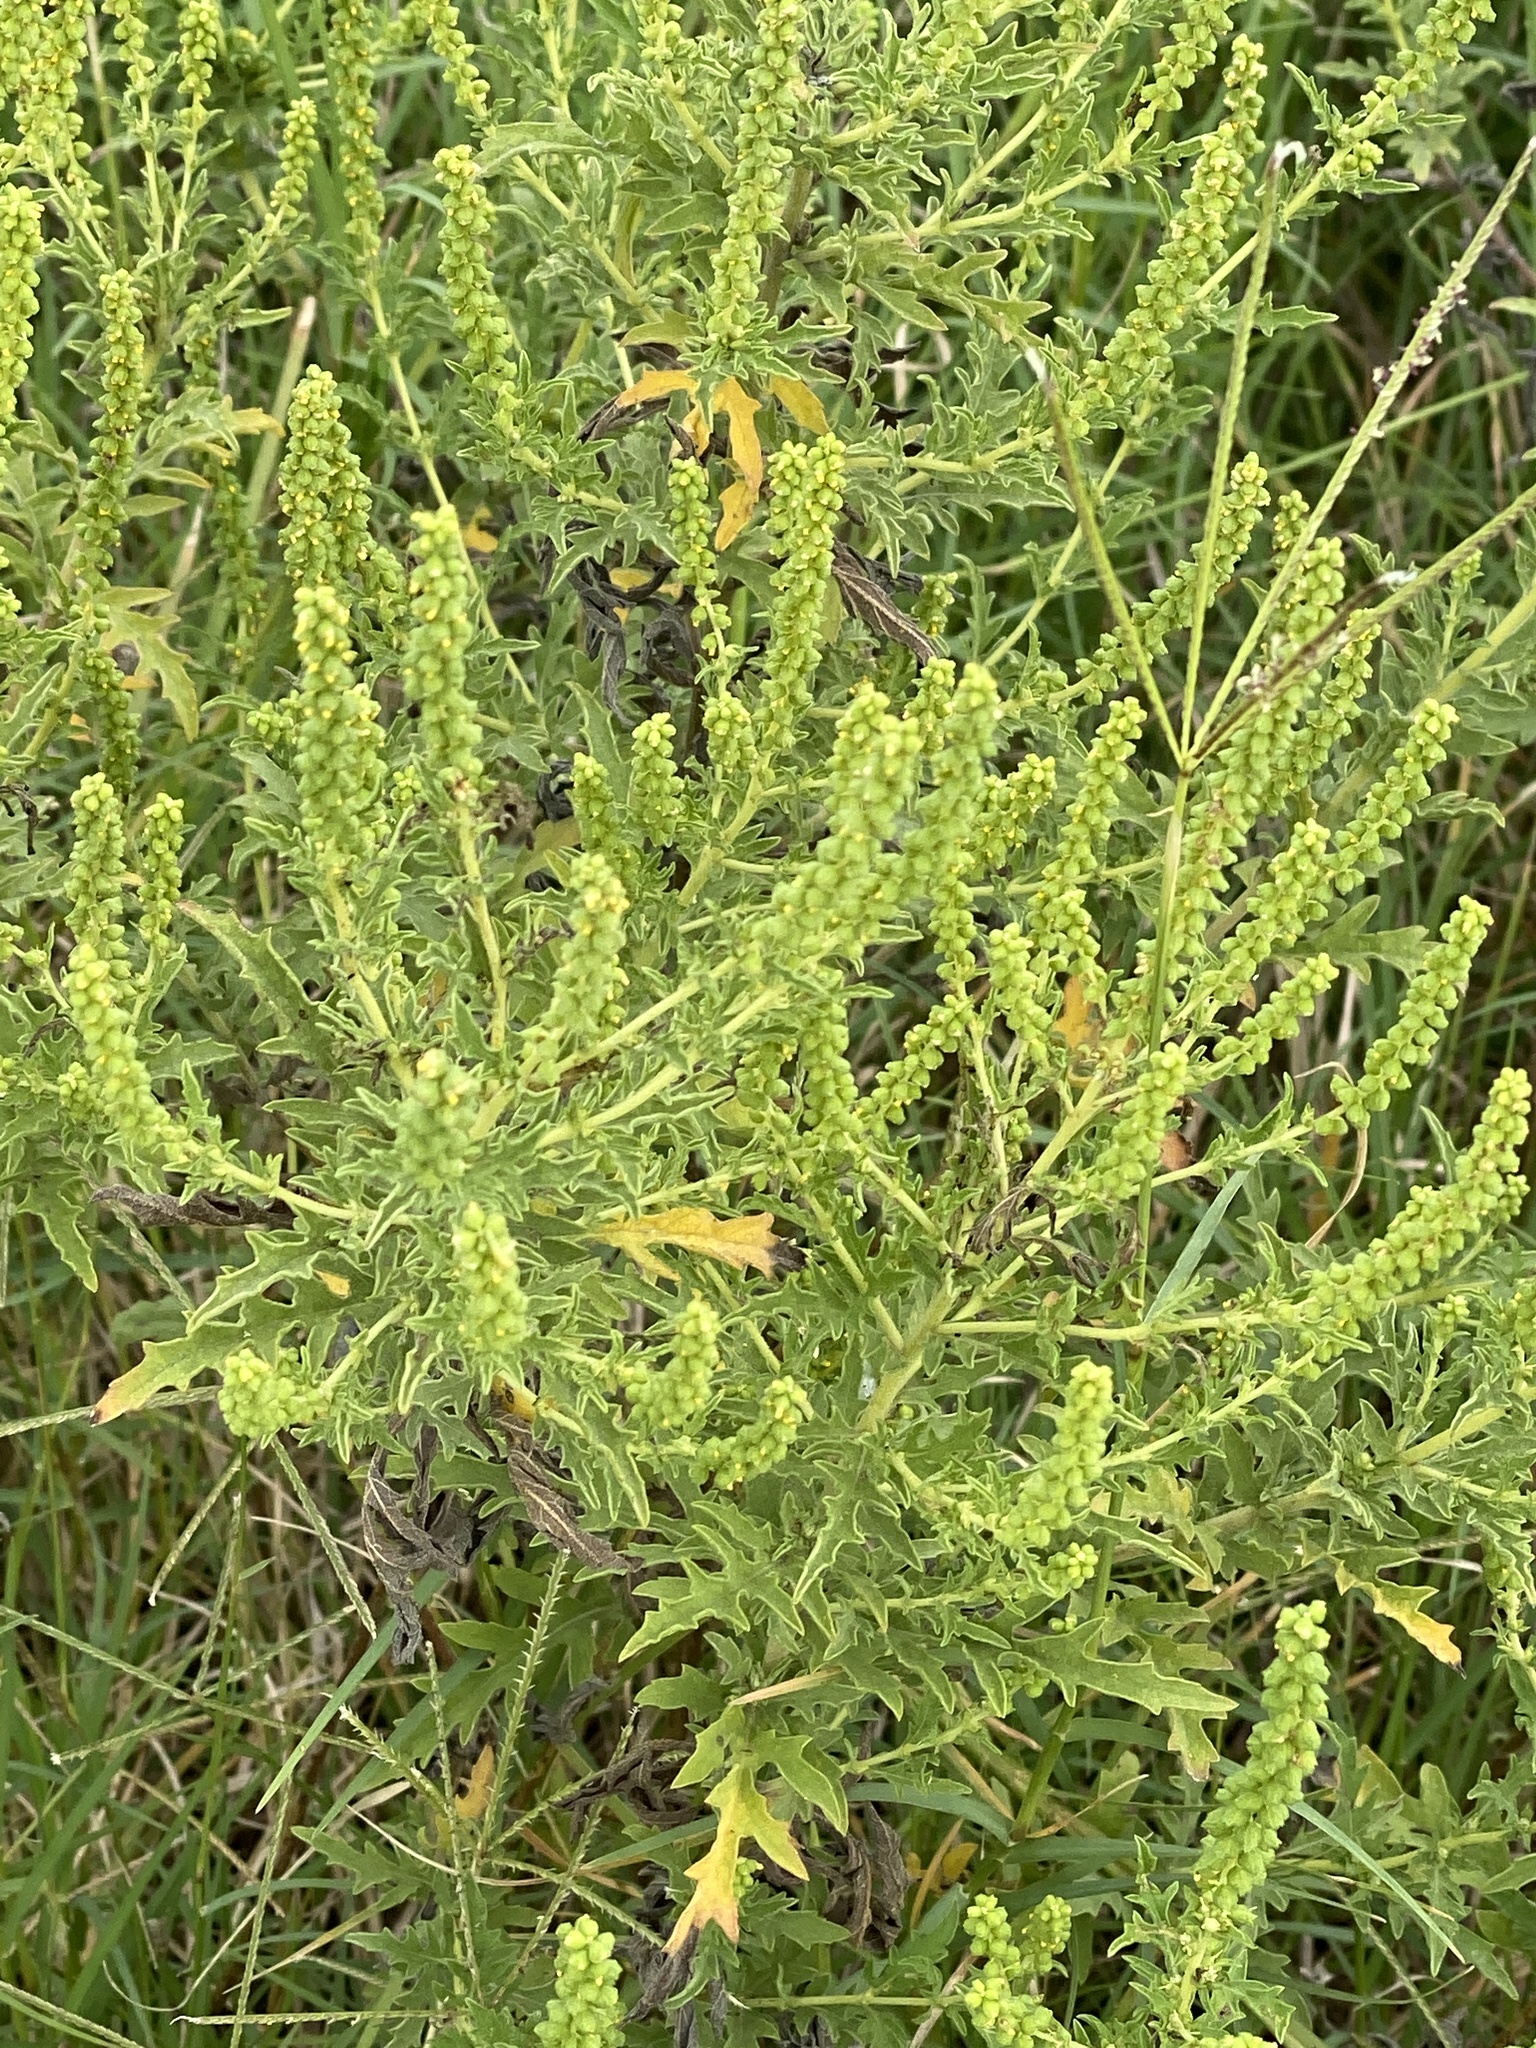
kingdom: Plantae
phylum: Tracheophyta
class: Magnoliopsida
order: Asterales
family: Asteraceae
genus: Ambrosia
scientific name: Ambrosia psilostachya
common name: Perennial ragweed
